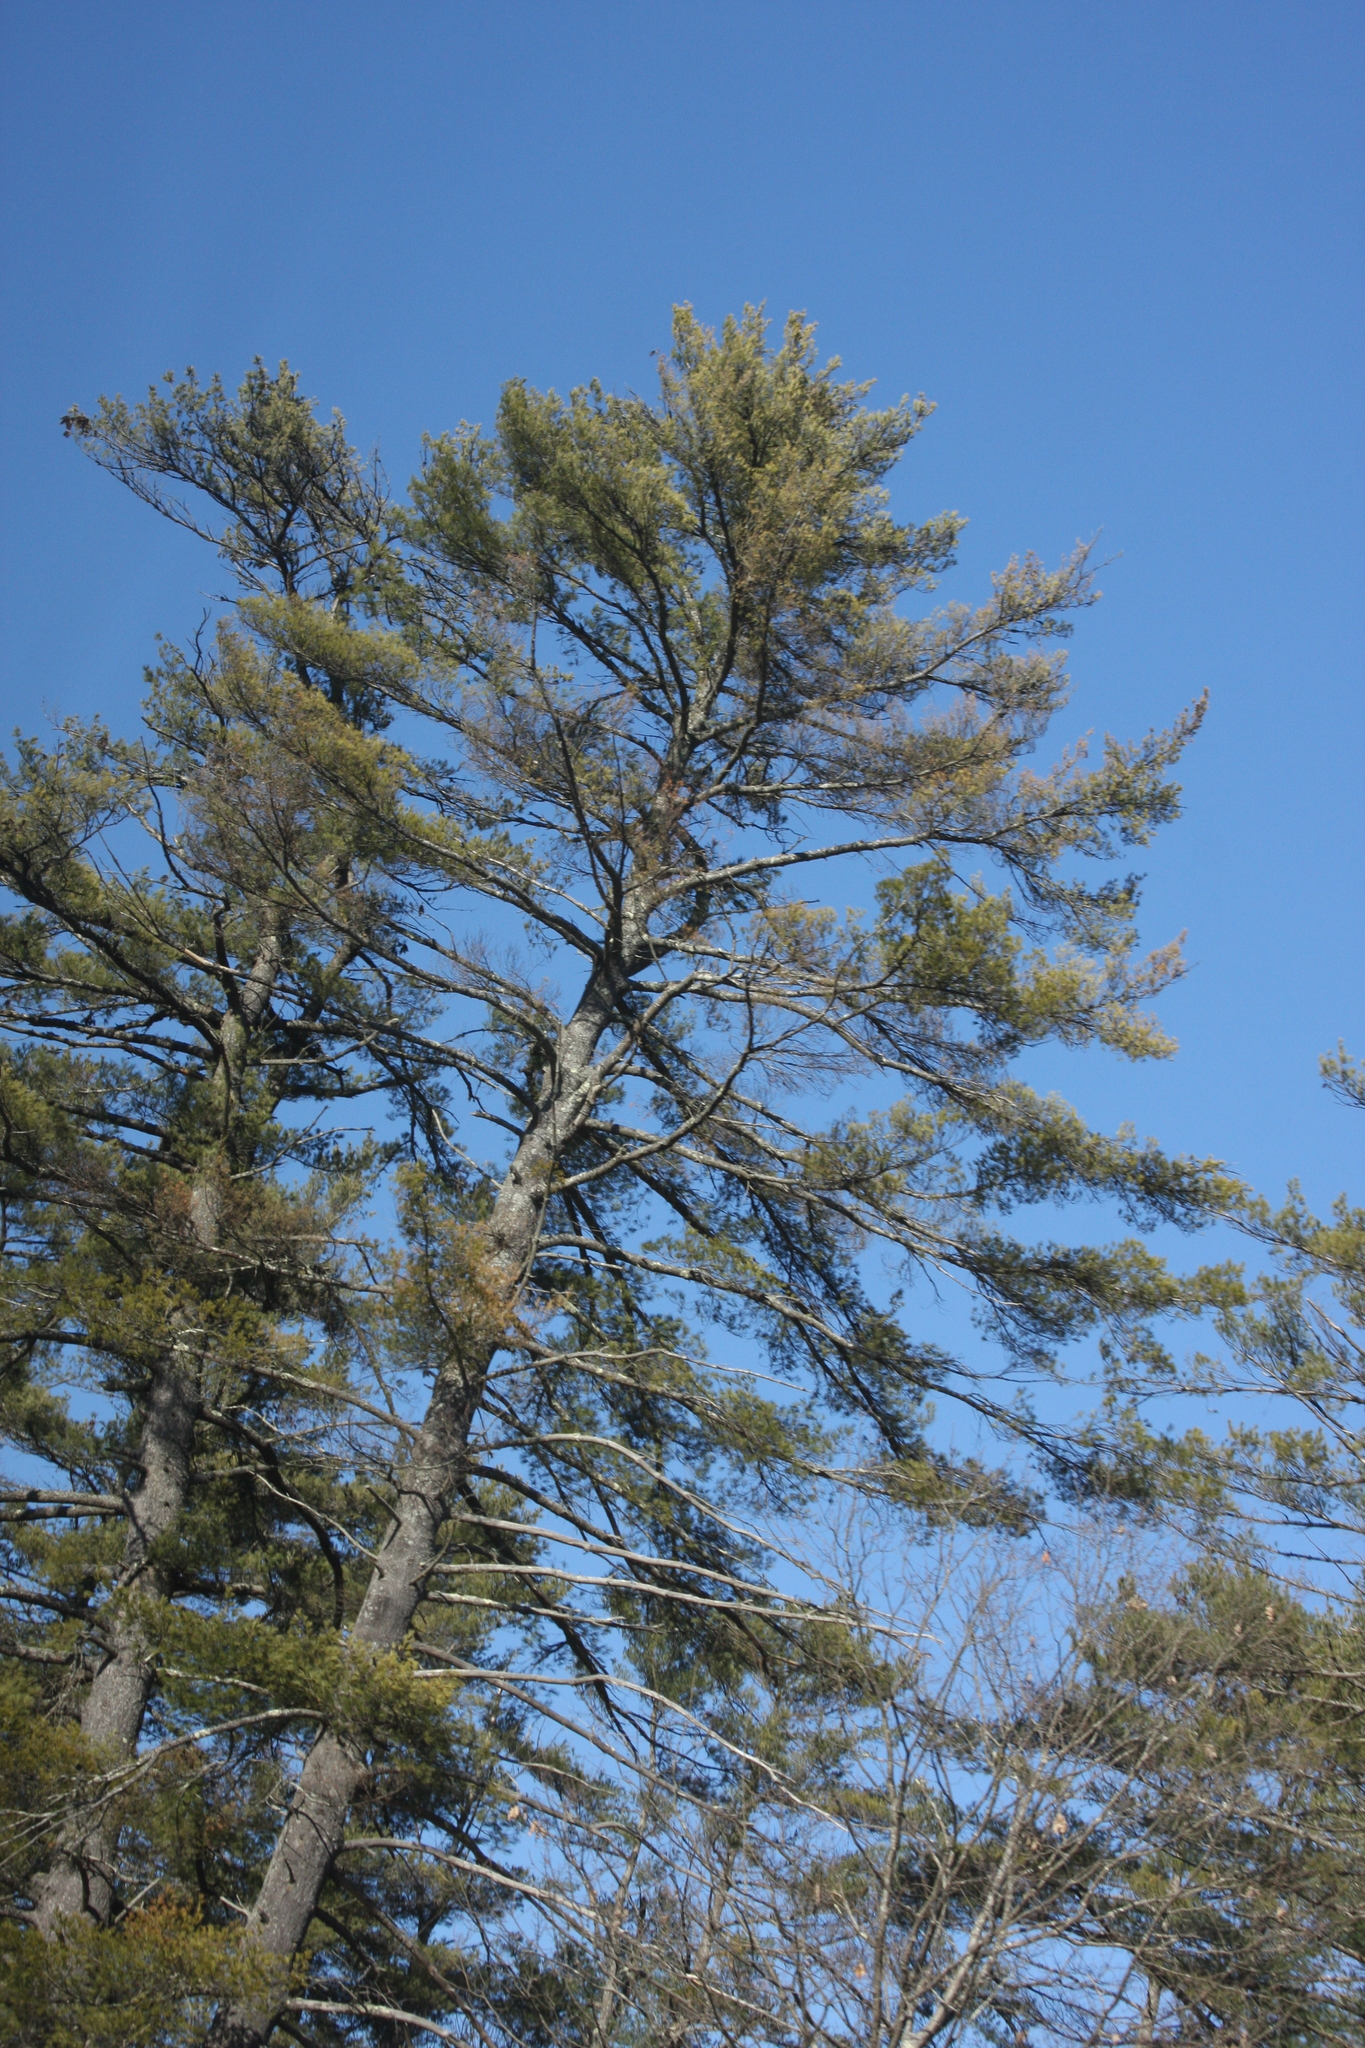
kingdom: Plantae
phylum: Tracheophyta
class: Pinopsida
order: Pinales
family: Pinaceae
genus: Pinus
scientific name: Pinus strobus
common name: Weymouth pine
